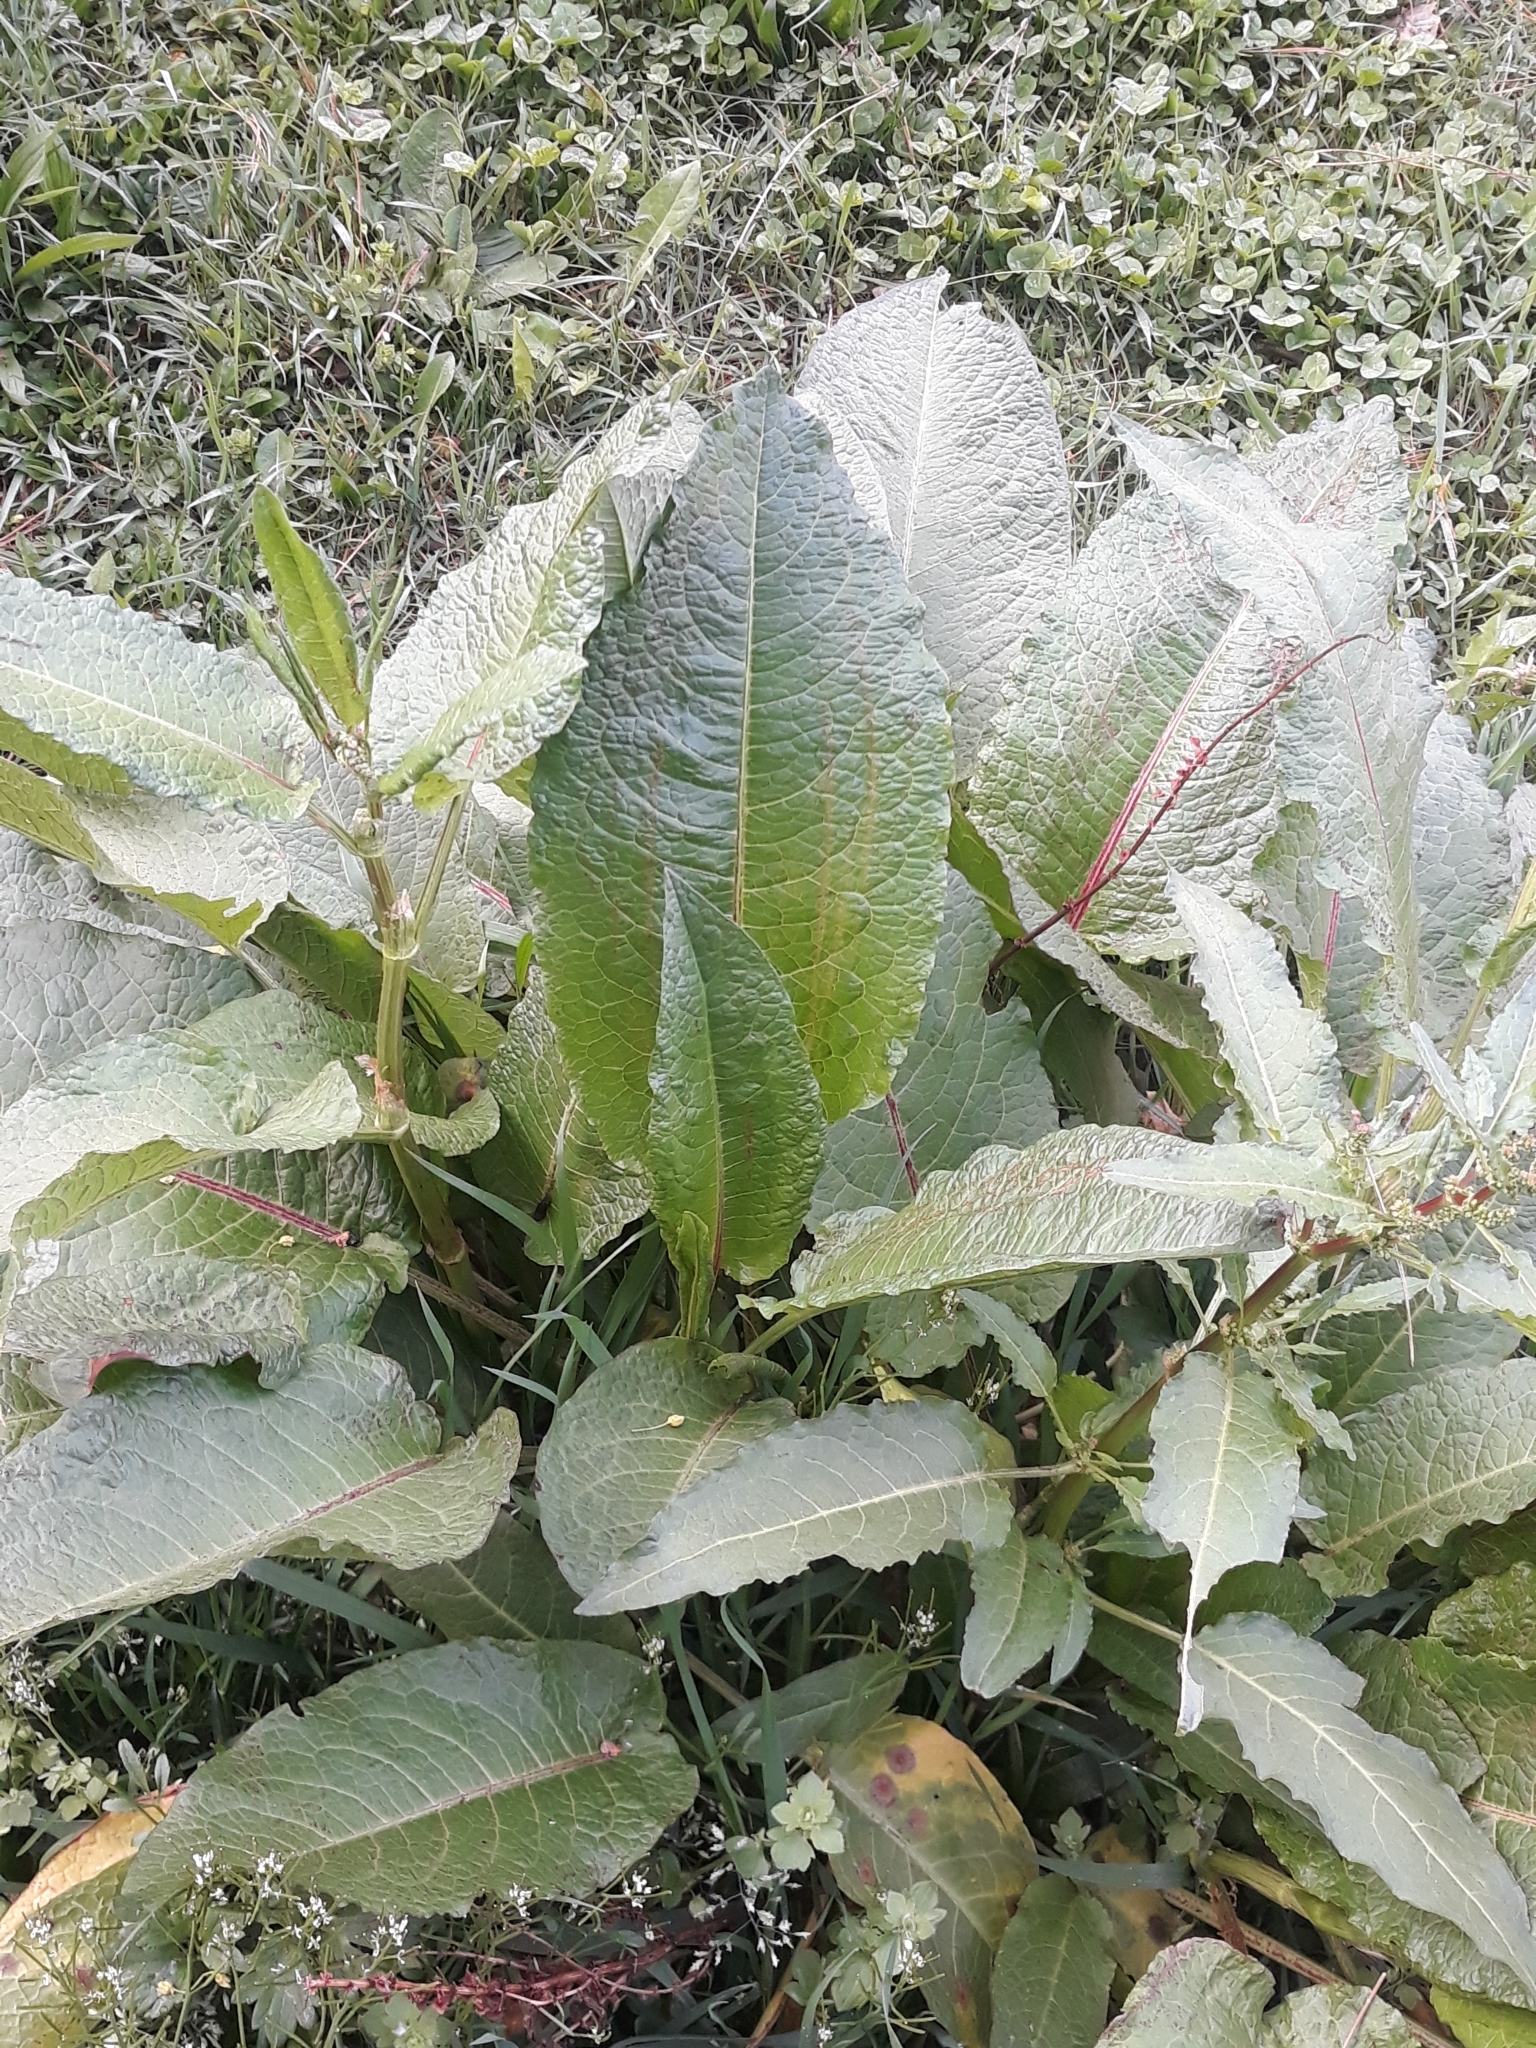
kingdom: Plantae
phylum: Tracheophyta
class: Magnoliopsida
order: Caryophyllales
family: Polygonaceae
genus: Rumex
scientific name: Rumex obtusifolius
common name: Bitter dock
